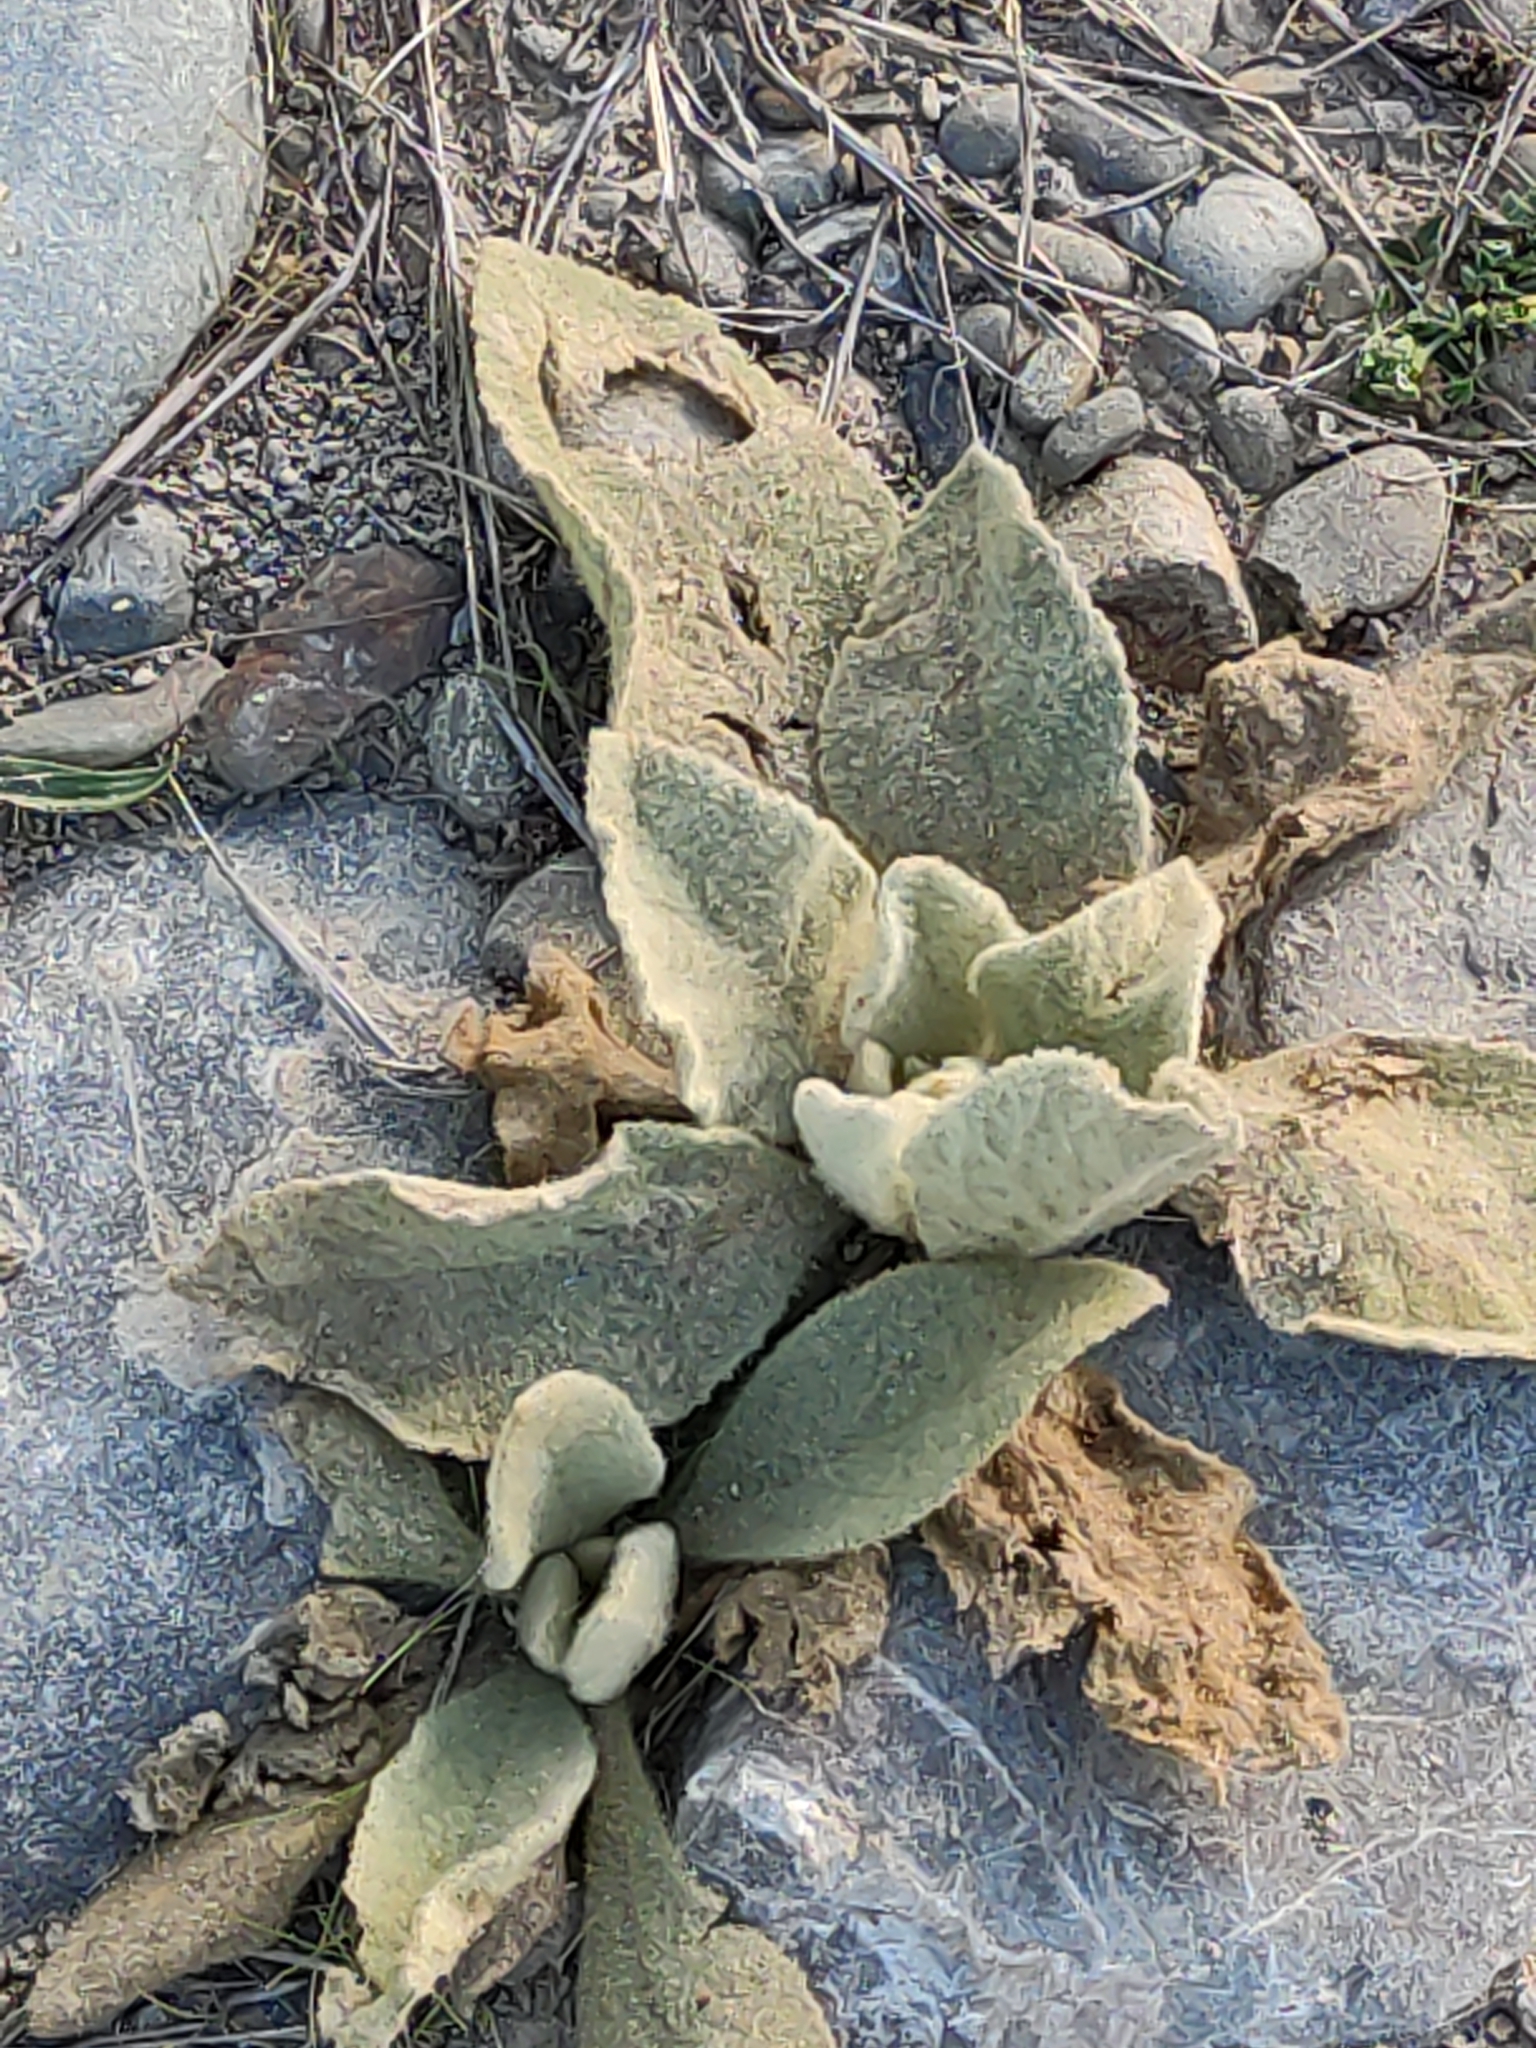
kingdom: Plantae
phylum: Tracheophyta
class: Magnoliopsida
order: Lamiales
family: Scrophulariaceae
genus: Verbascum
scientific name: Verbascum thapsus
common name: Common mullein
